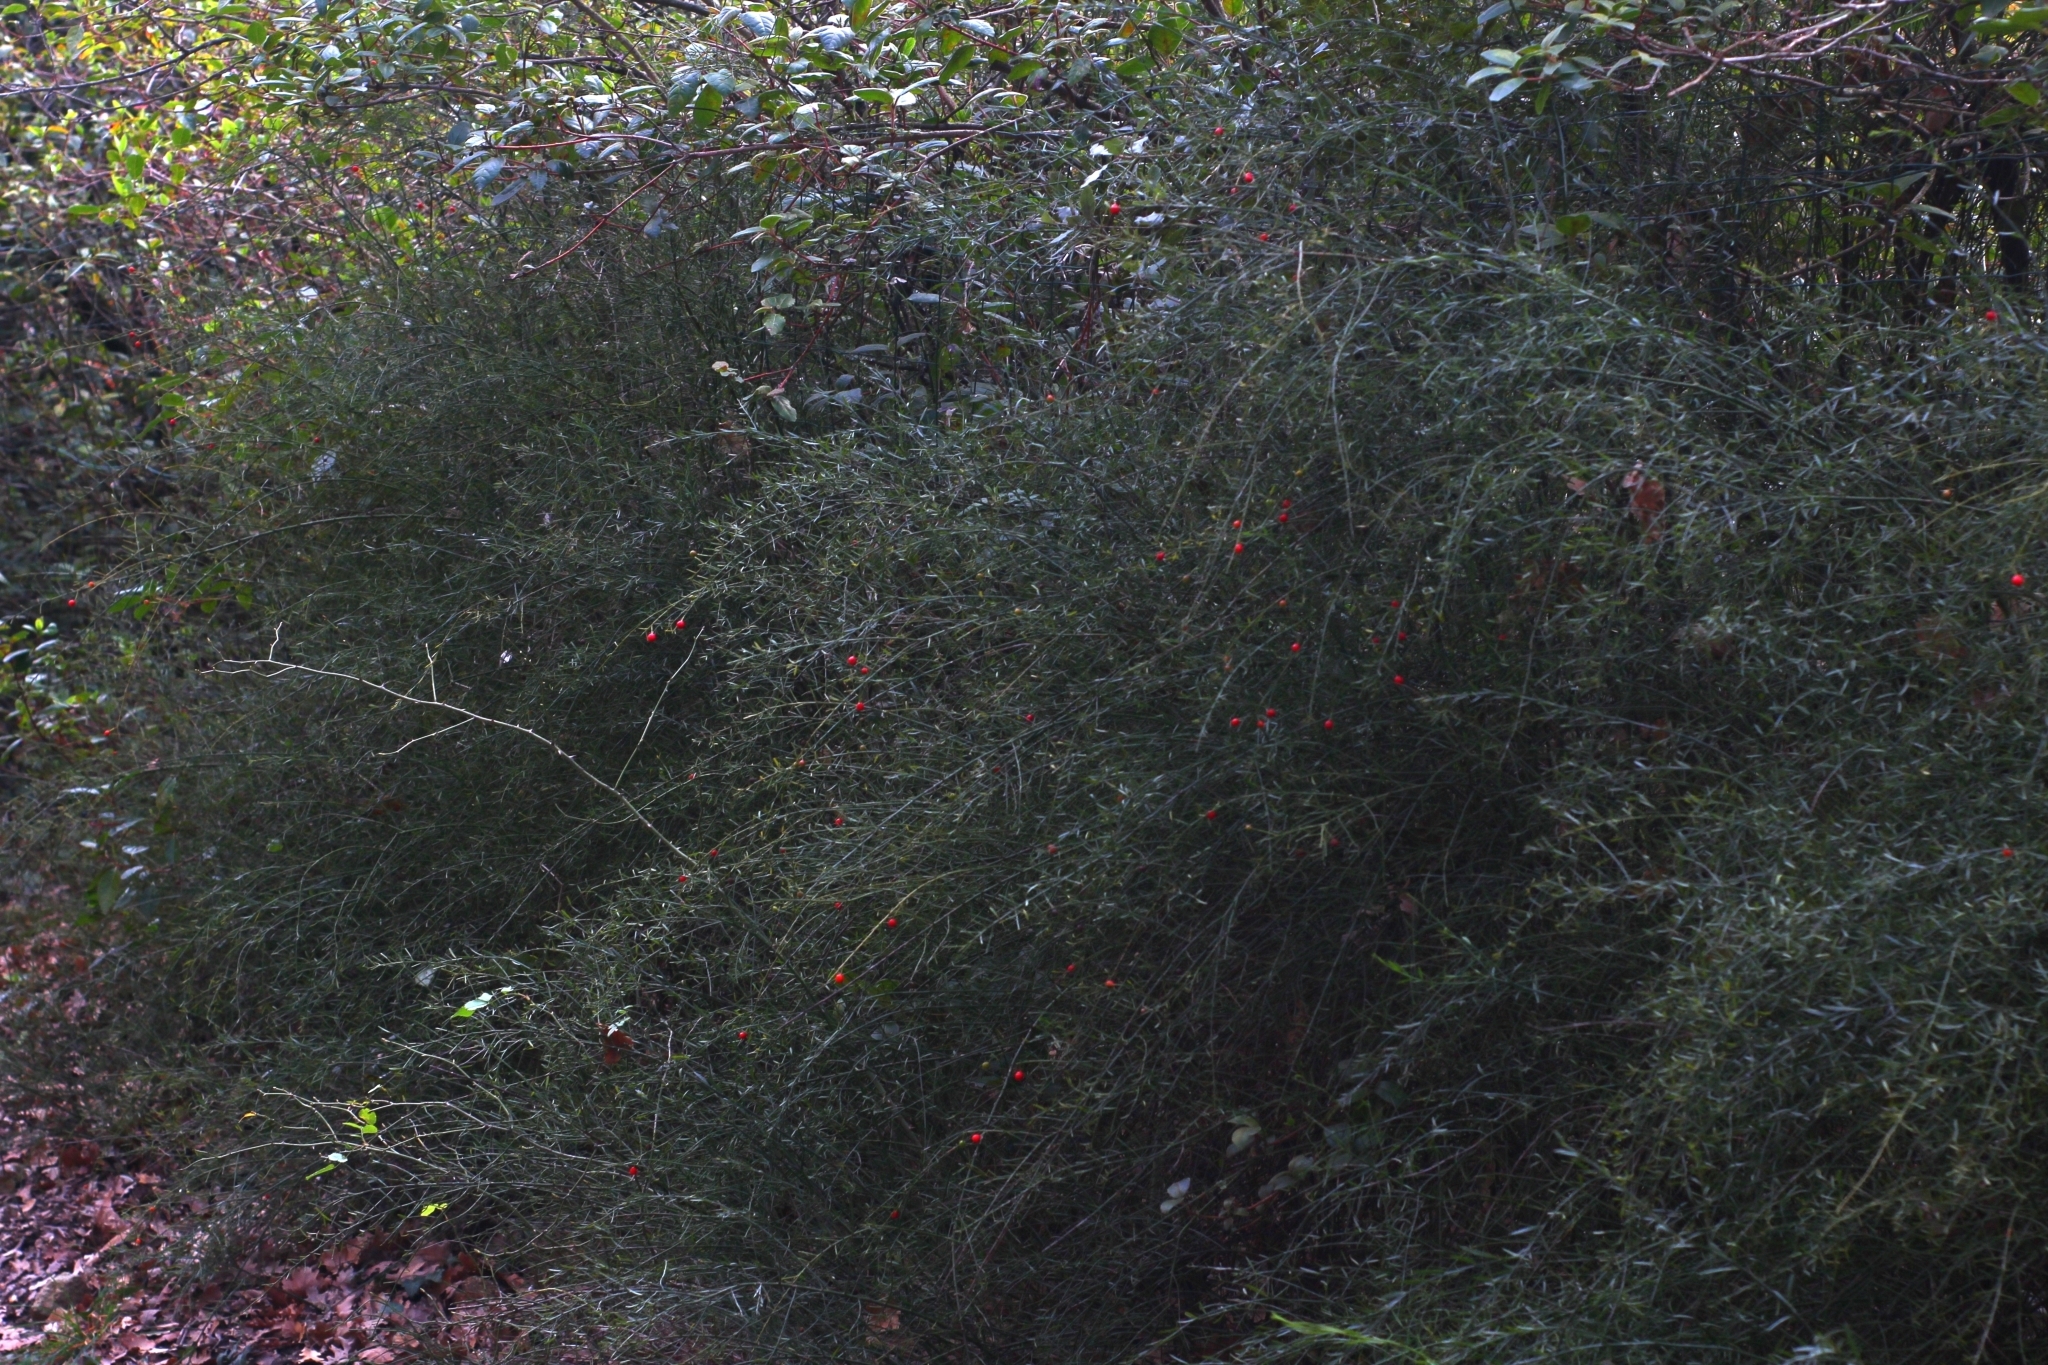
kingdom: Plantae
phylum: Tracheophyta
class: Magnoliopsida
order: Santalales
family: Santalaceae
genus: Osyris
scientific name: Osyris alba
